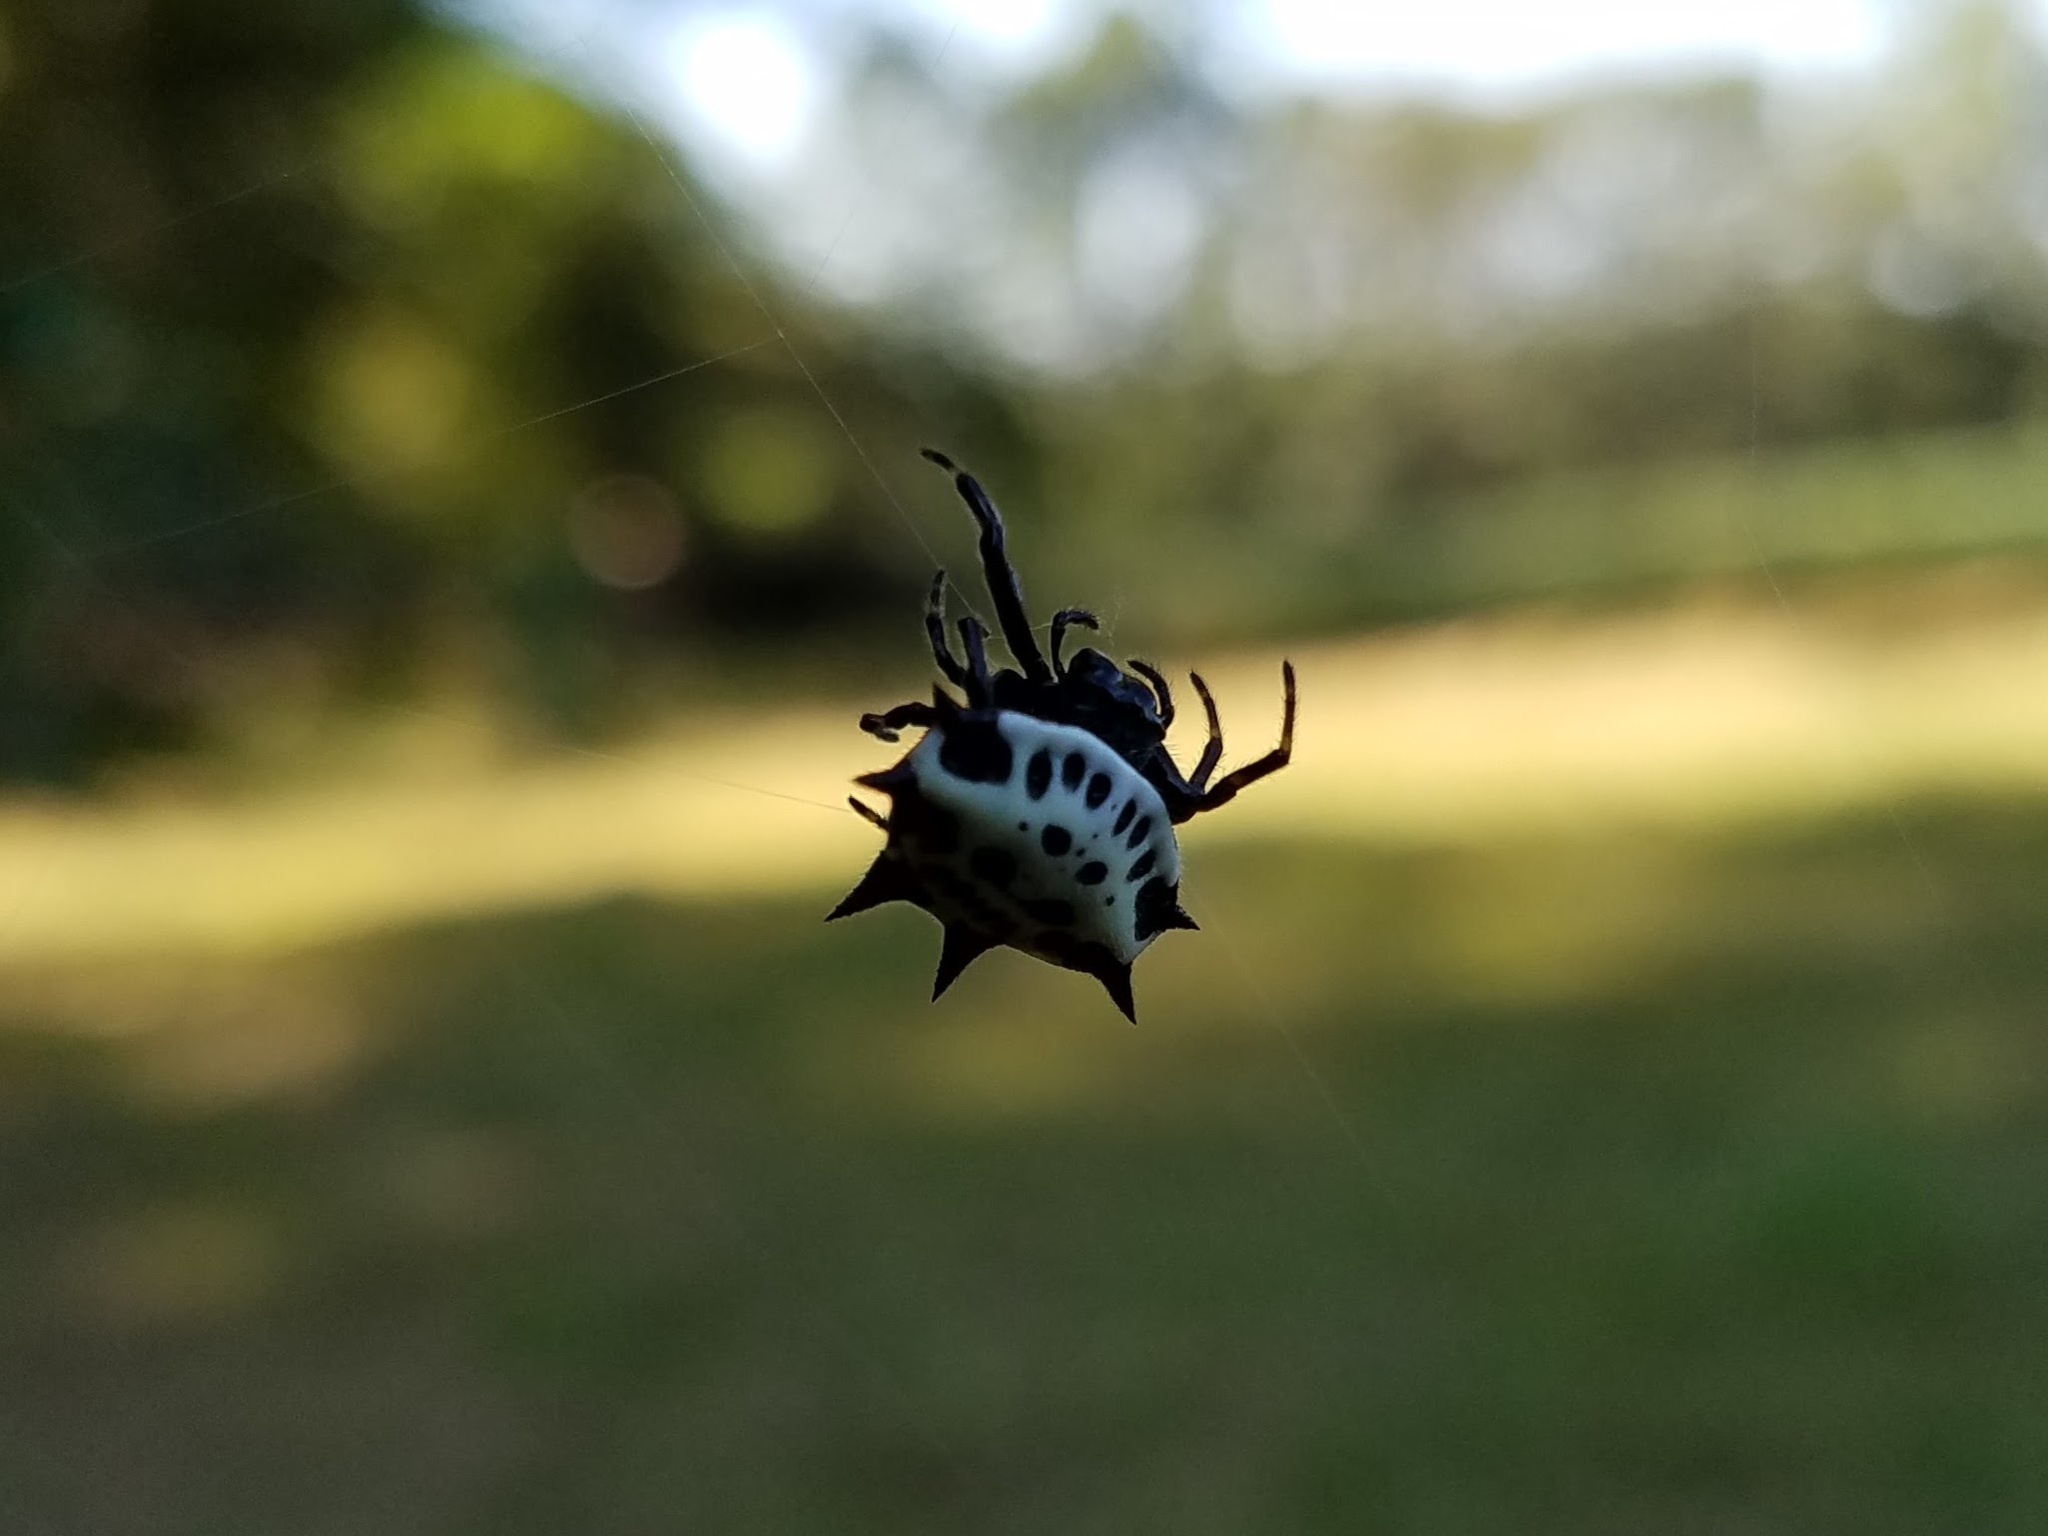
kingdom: Animalia
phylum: Arthropoda
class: Arachnida
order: Araneae
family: Araneidae
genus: Gasteracantha
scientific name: Gasteracantha cancriformis
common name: Orb weavers
